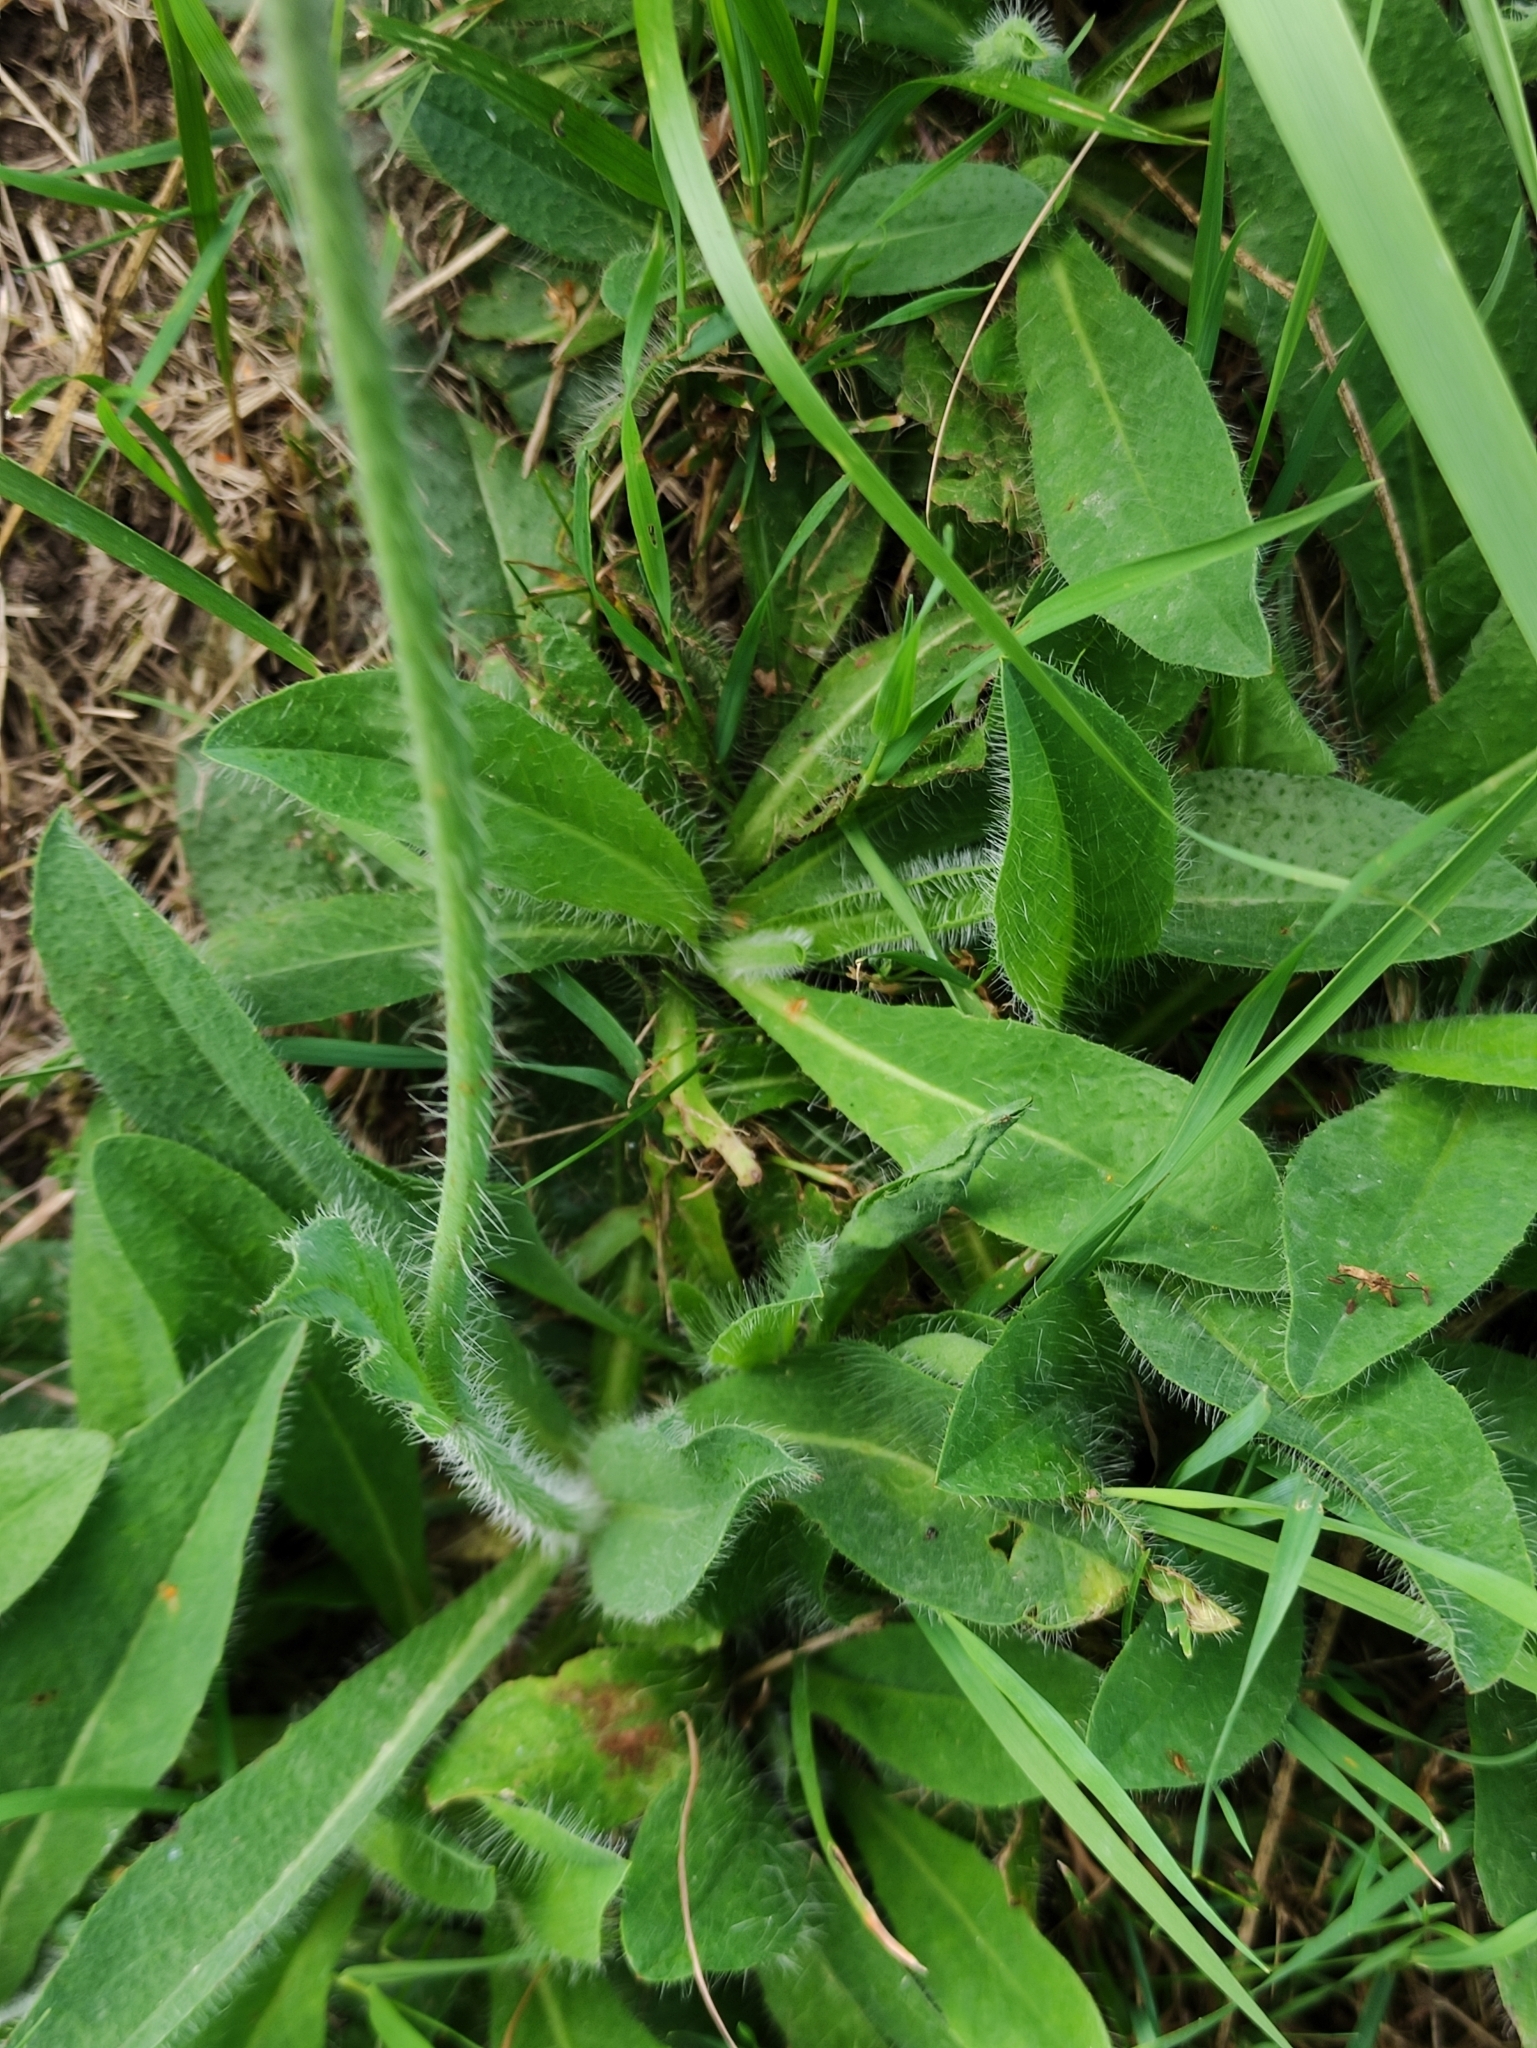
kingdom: Plantae
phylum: Tracheophyta
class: Magnoliopsida
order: Asterales
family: Asteraceae
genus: Pilosella
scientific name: Pilosella aurantiaca
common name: Fox-and-cubs
